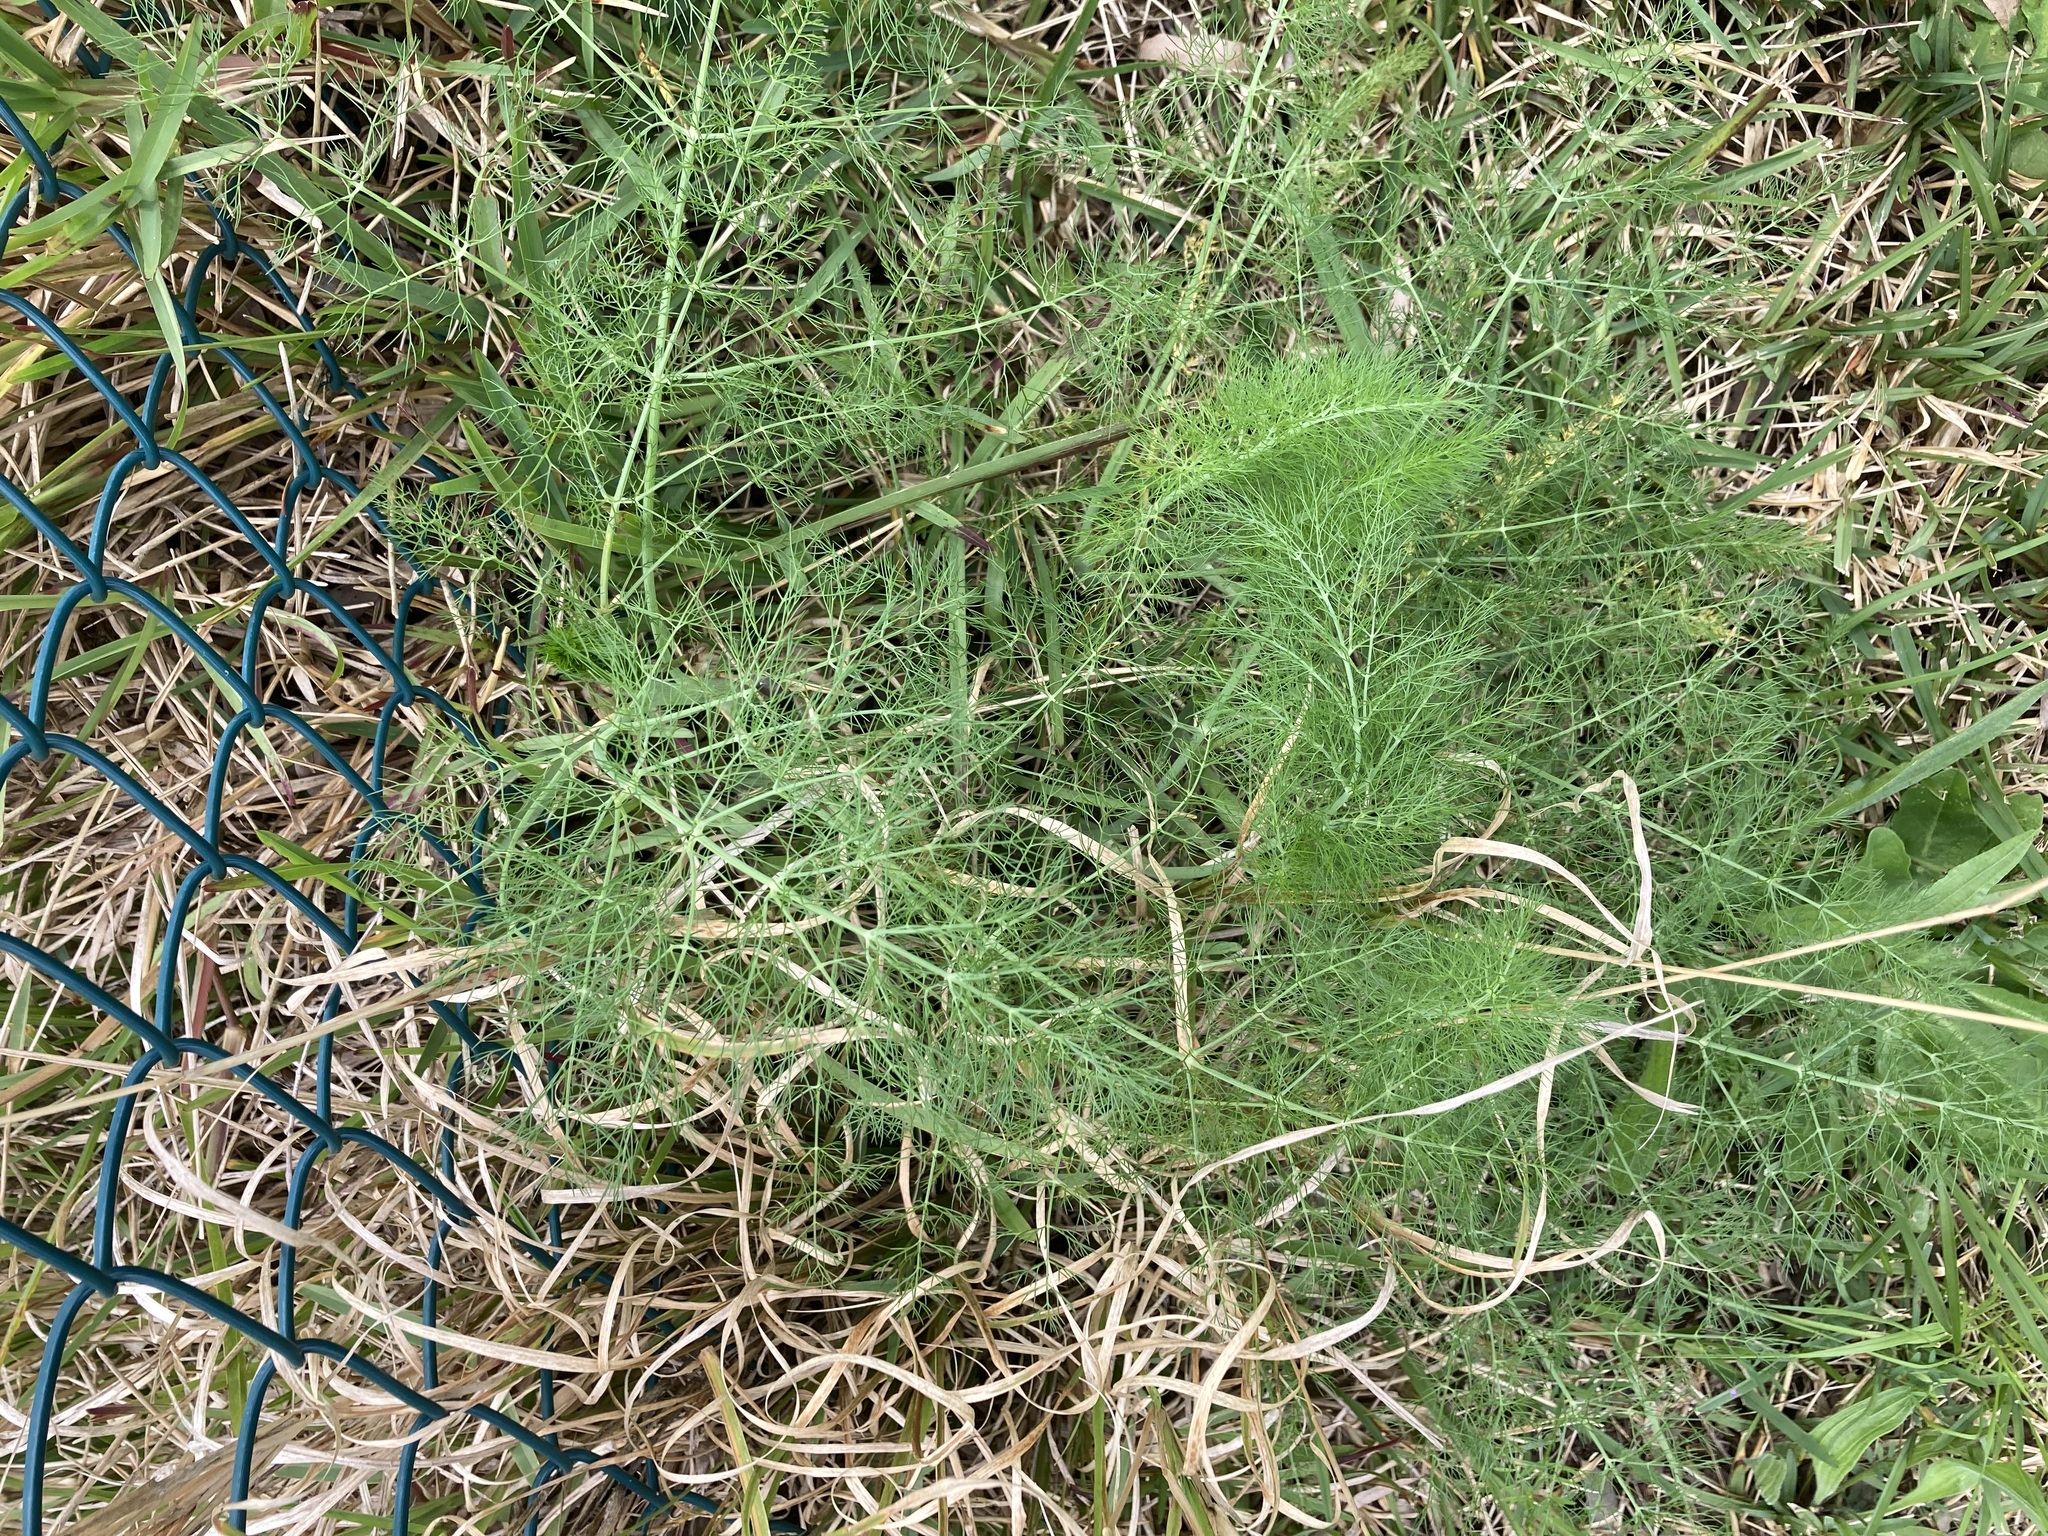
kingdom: Plantae
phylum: Tracheophyta
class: Magnoliopsida
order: Apiales
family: Apiaceae
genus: Foeniculum
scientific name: Foeniculum vulgare
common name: Fennel
